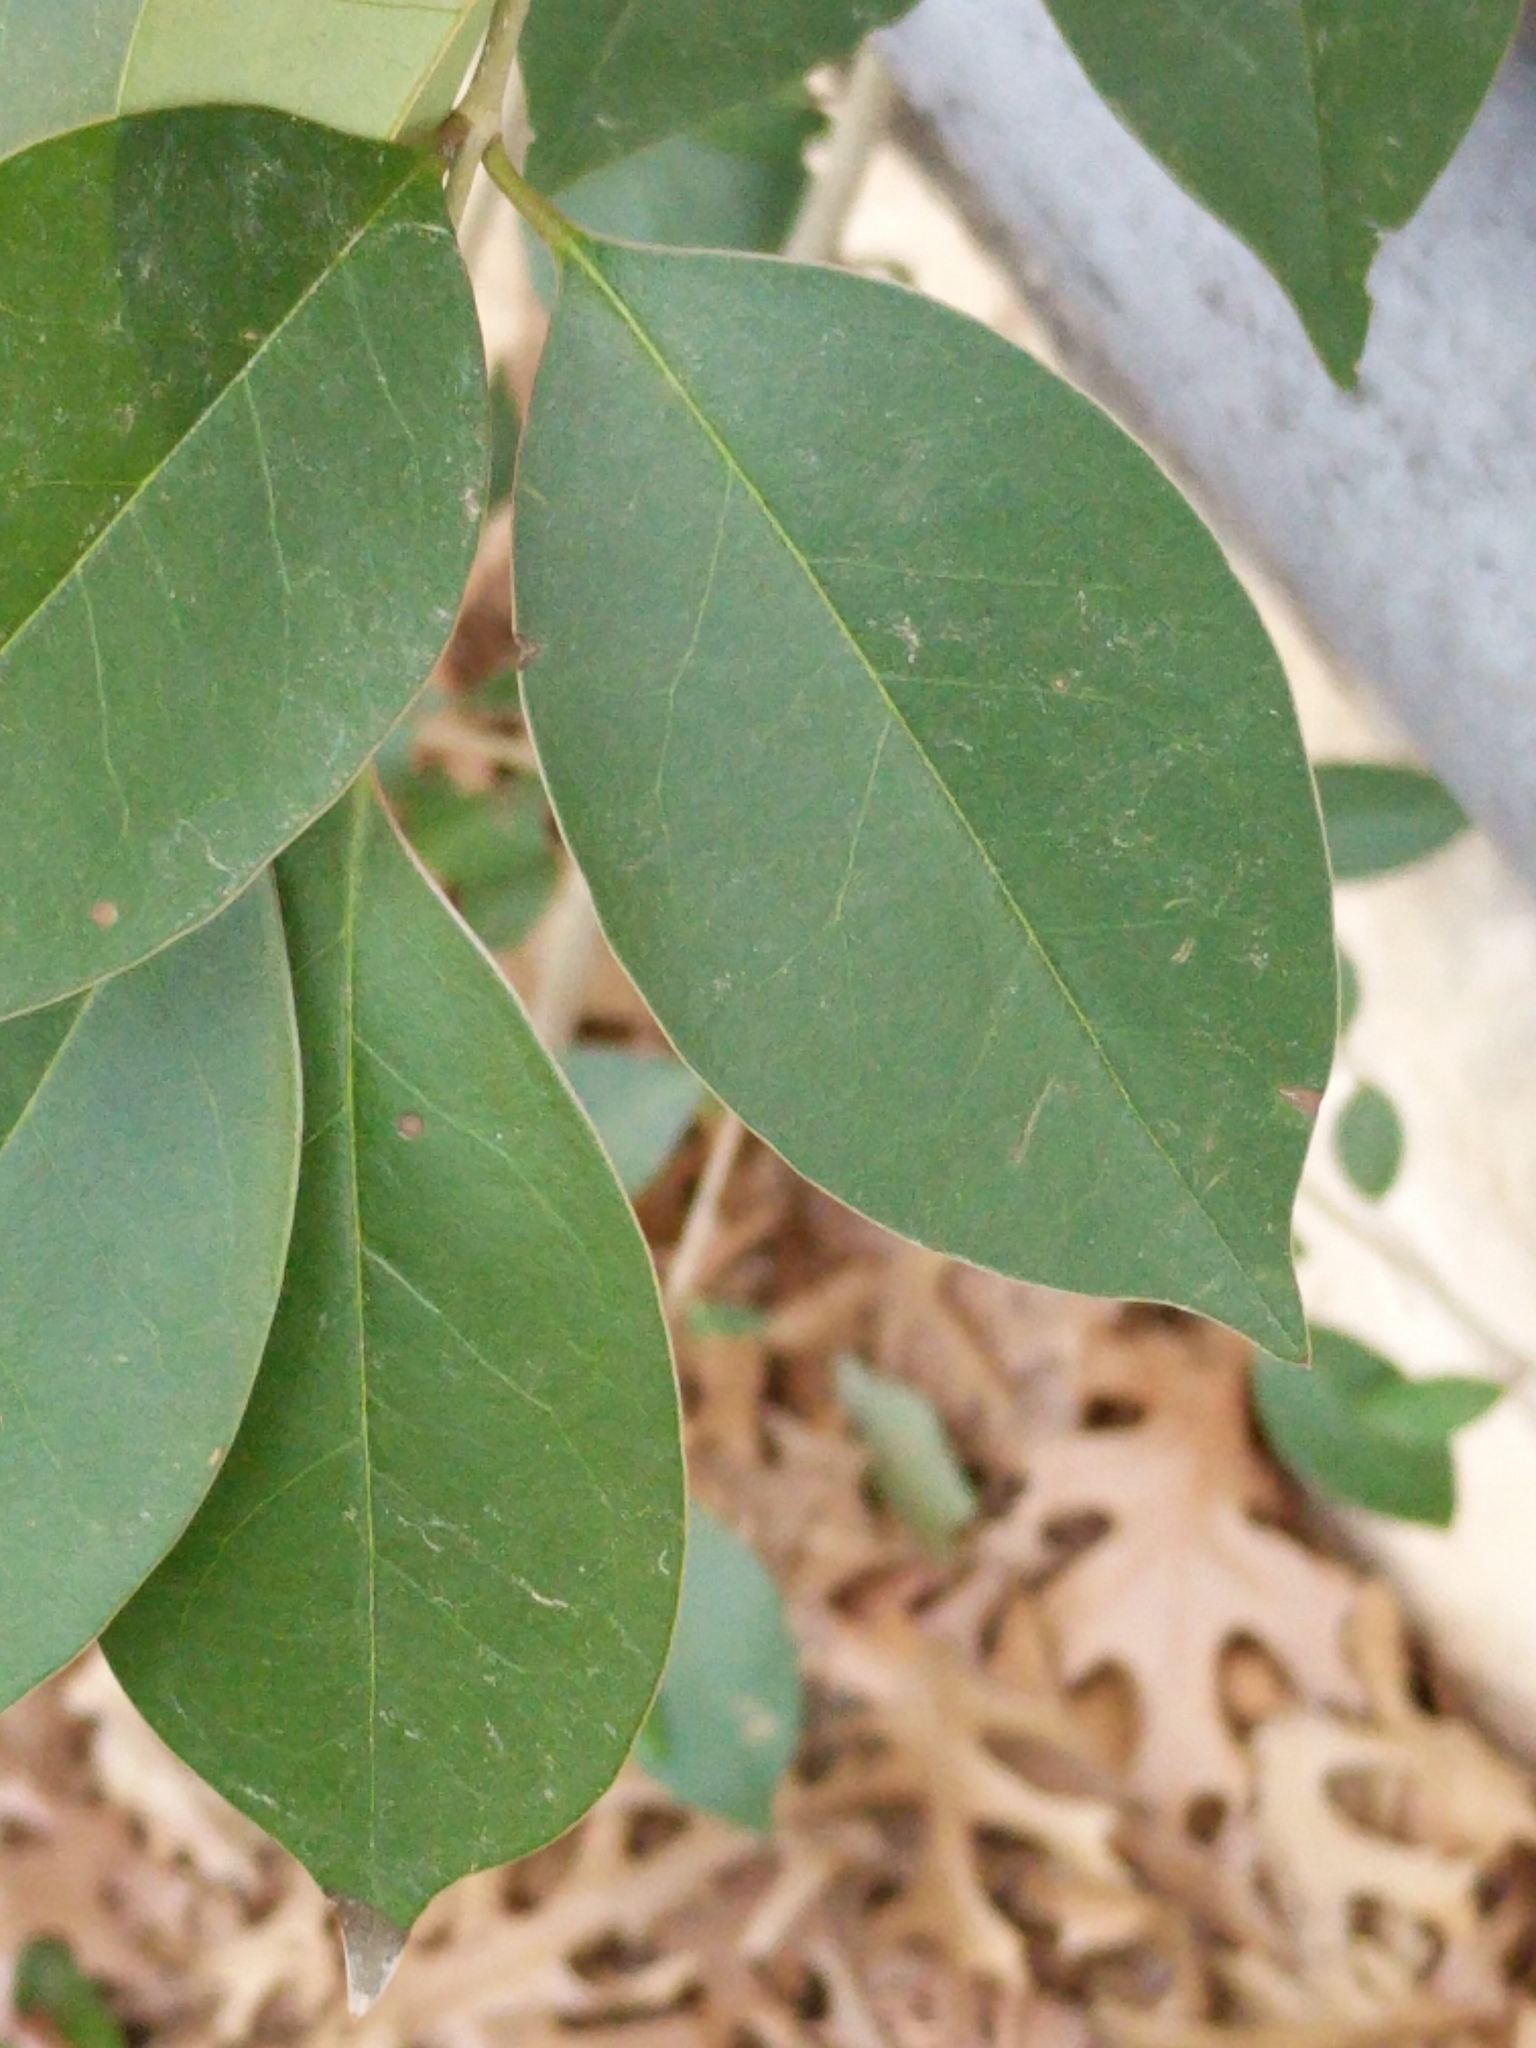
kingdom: Plantae
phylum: Tracheophyta
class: Magnoliopsida
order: Lamiales
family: Oleaceae
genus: Ligustrum
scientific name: Ligustrum lucidum
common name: Glossy privet
